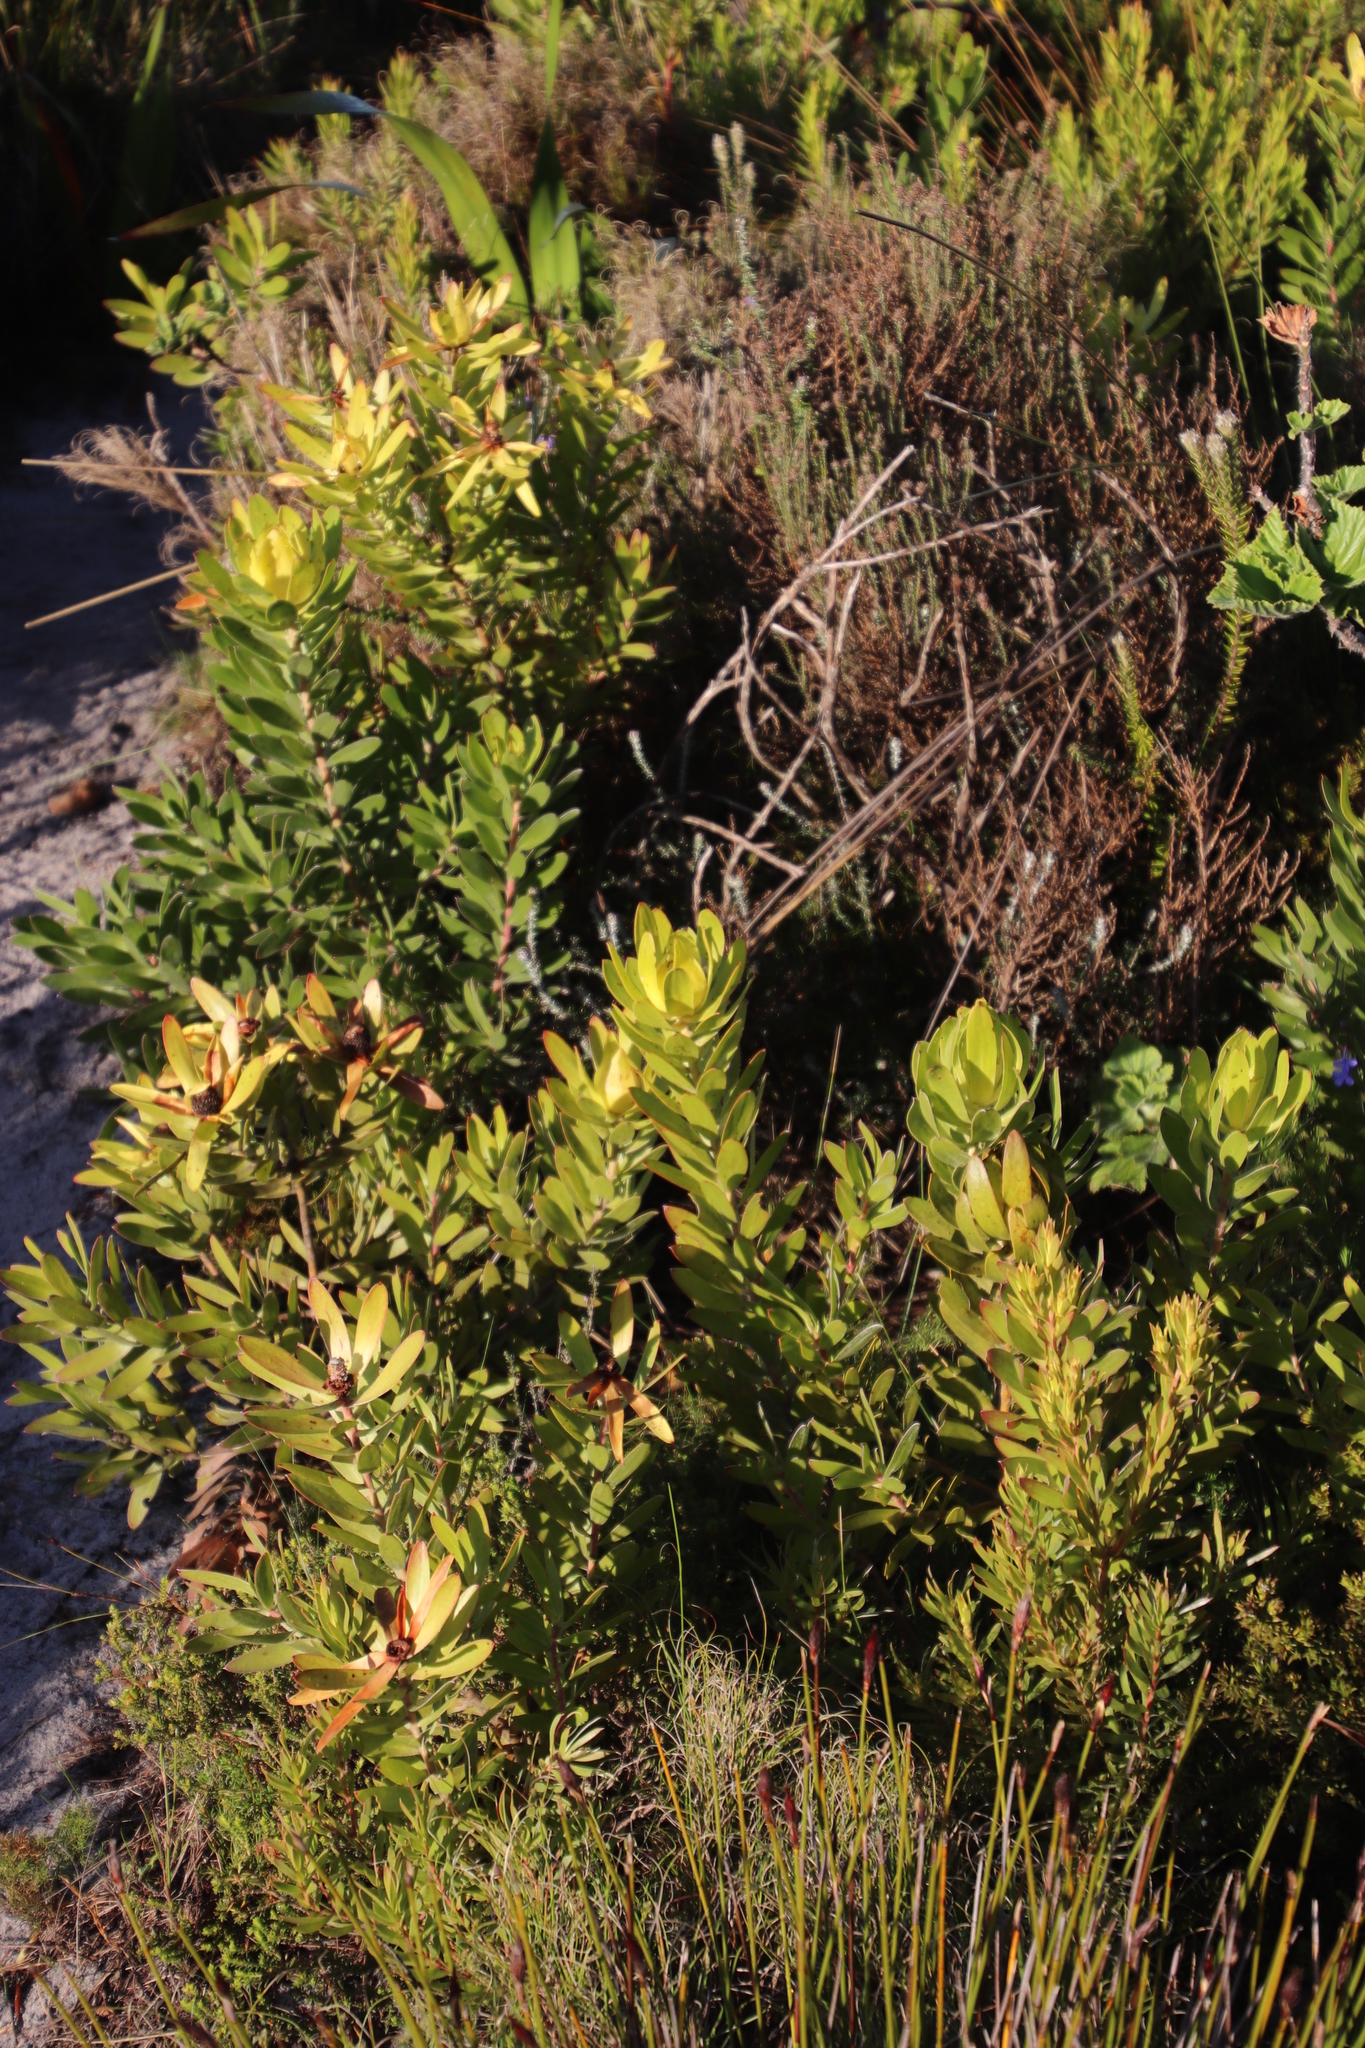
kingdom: Plantae
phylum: Tracheophyta
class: Magnoliopsida
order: Proteales
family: Proteaceae
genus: Leucadendron
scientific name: Leucadendron laureolum
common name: Golden sunshinebush
